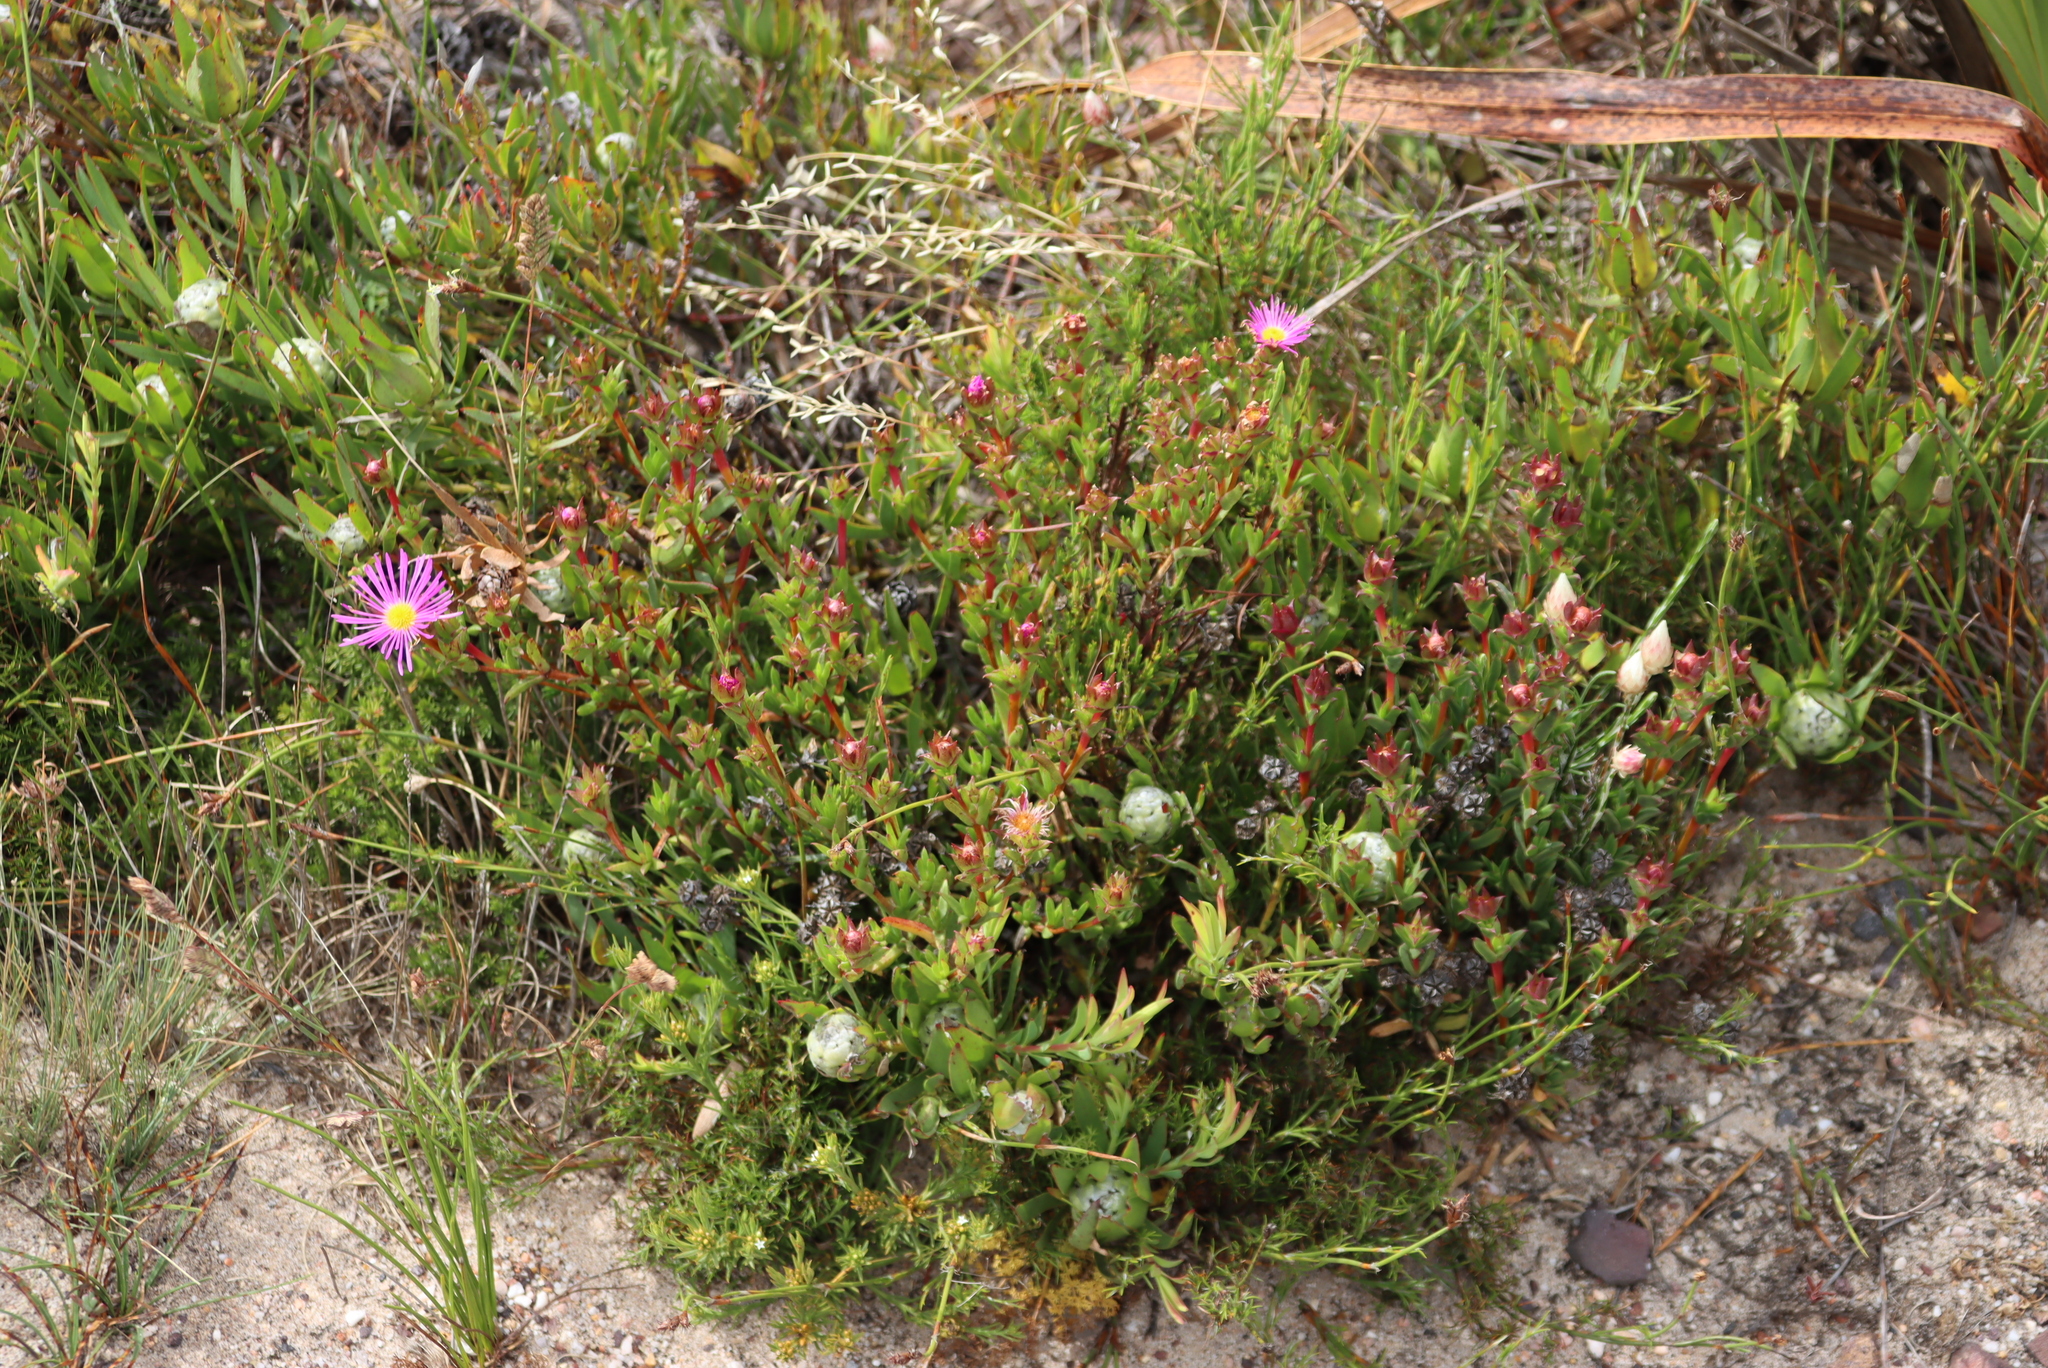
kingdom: Plantae
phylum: Tracheophyta
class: Magnoliopsida
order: Proteales
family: Proteaceae
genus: Leucadendron
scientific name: Leucadendron salignum
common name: Common sunshine conebush
